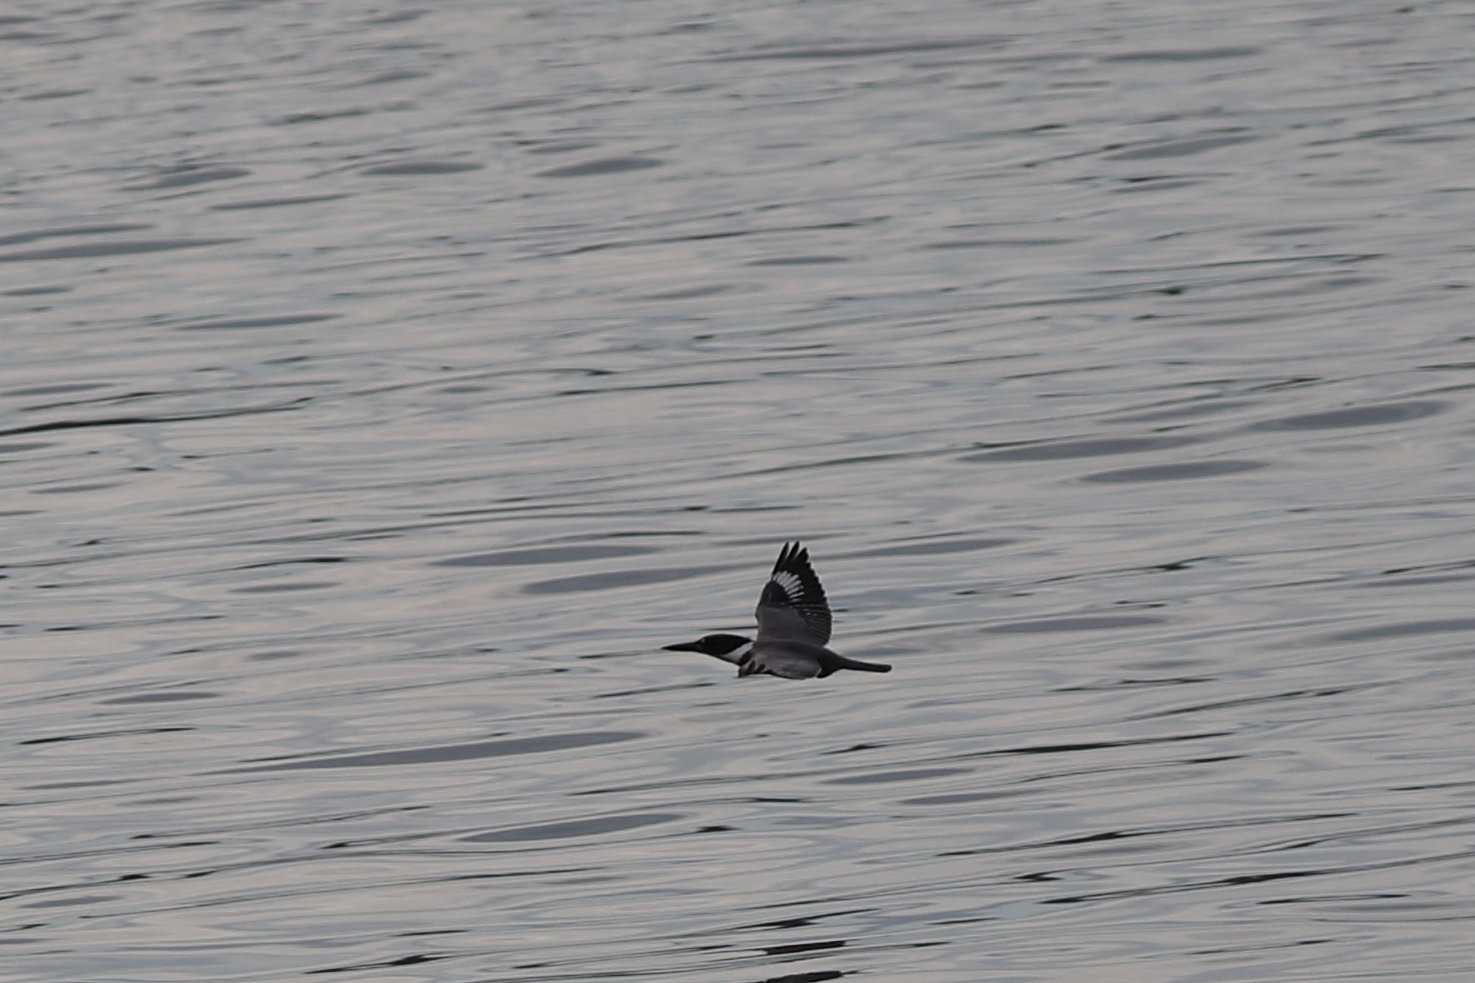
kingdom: Animalia
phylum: Chordata
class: Aves
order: Coraciiformes
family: Alcedinidae
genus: Megaceryle
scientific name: Megaceryle alcyon
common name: Belted kingfisher
